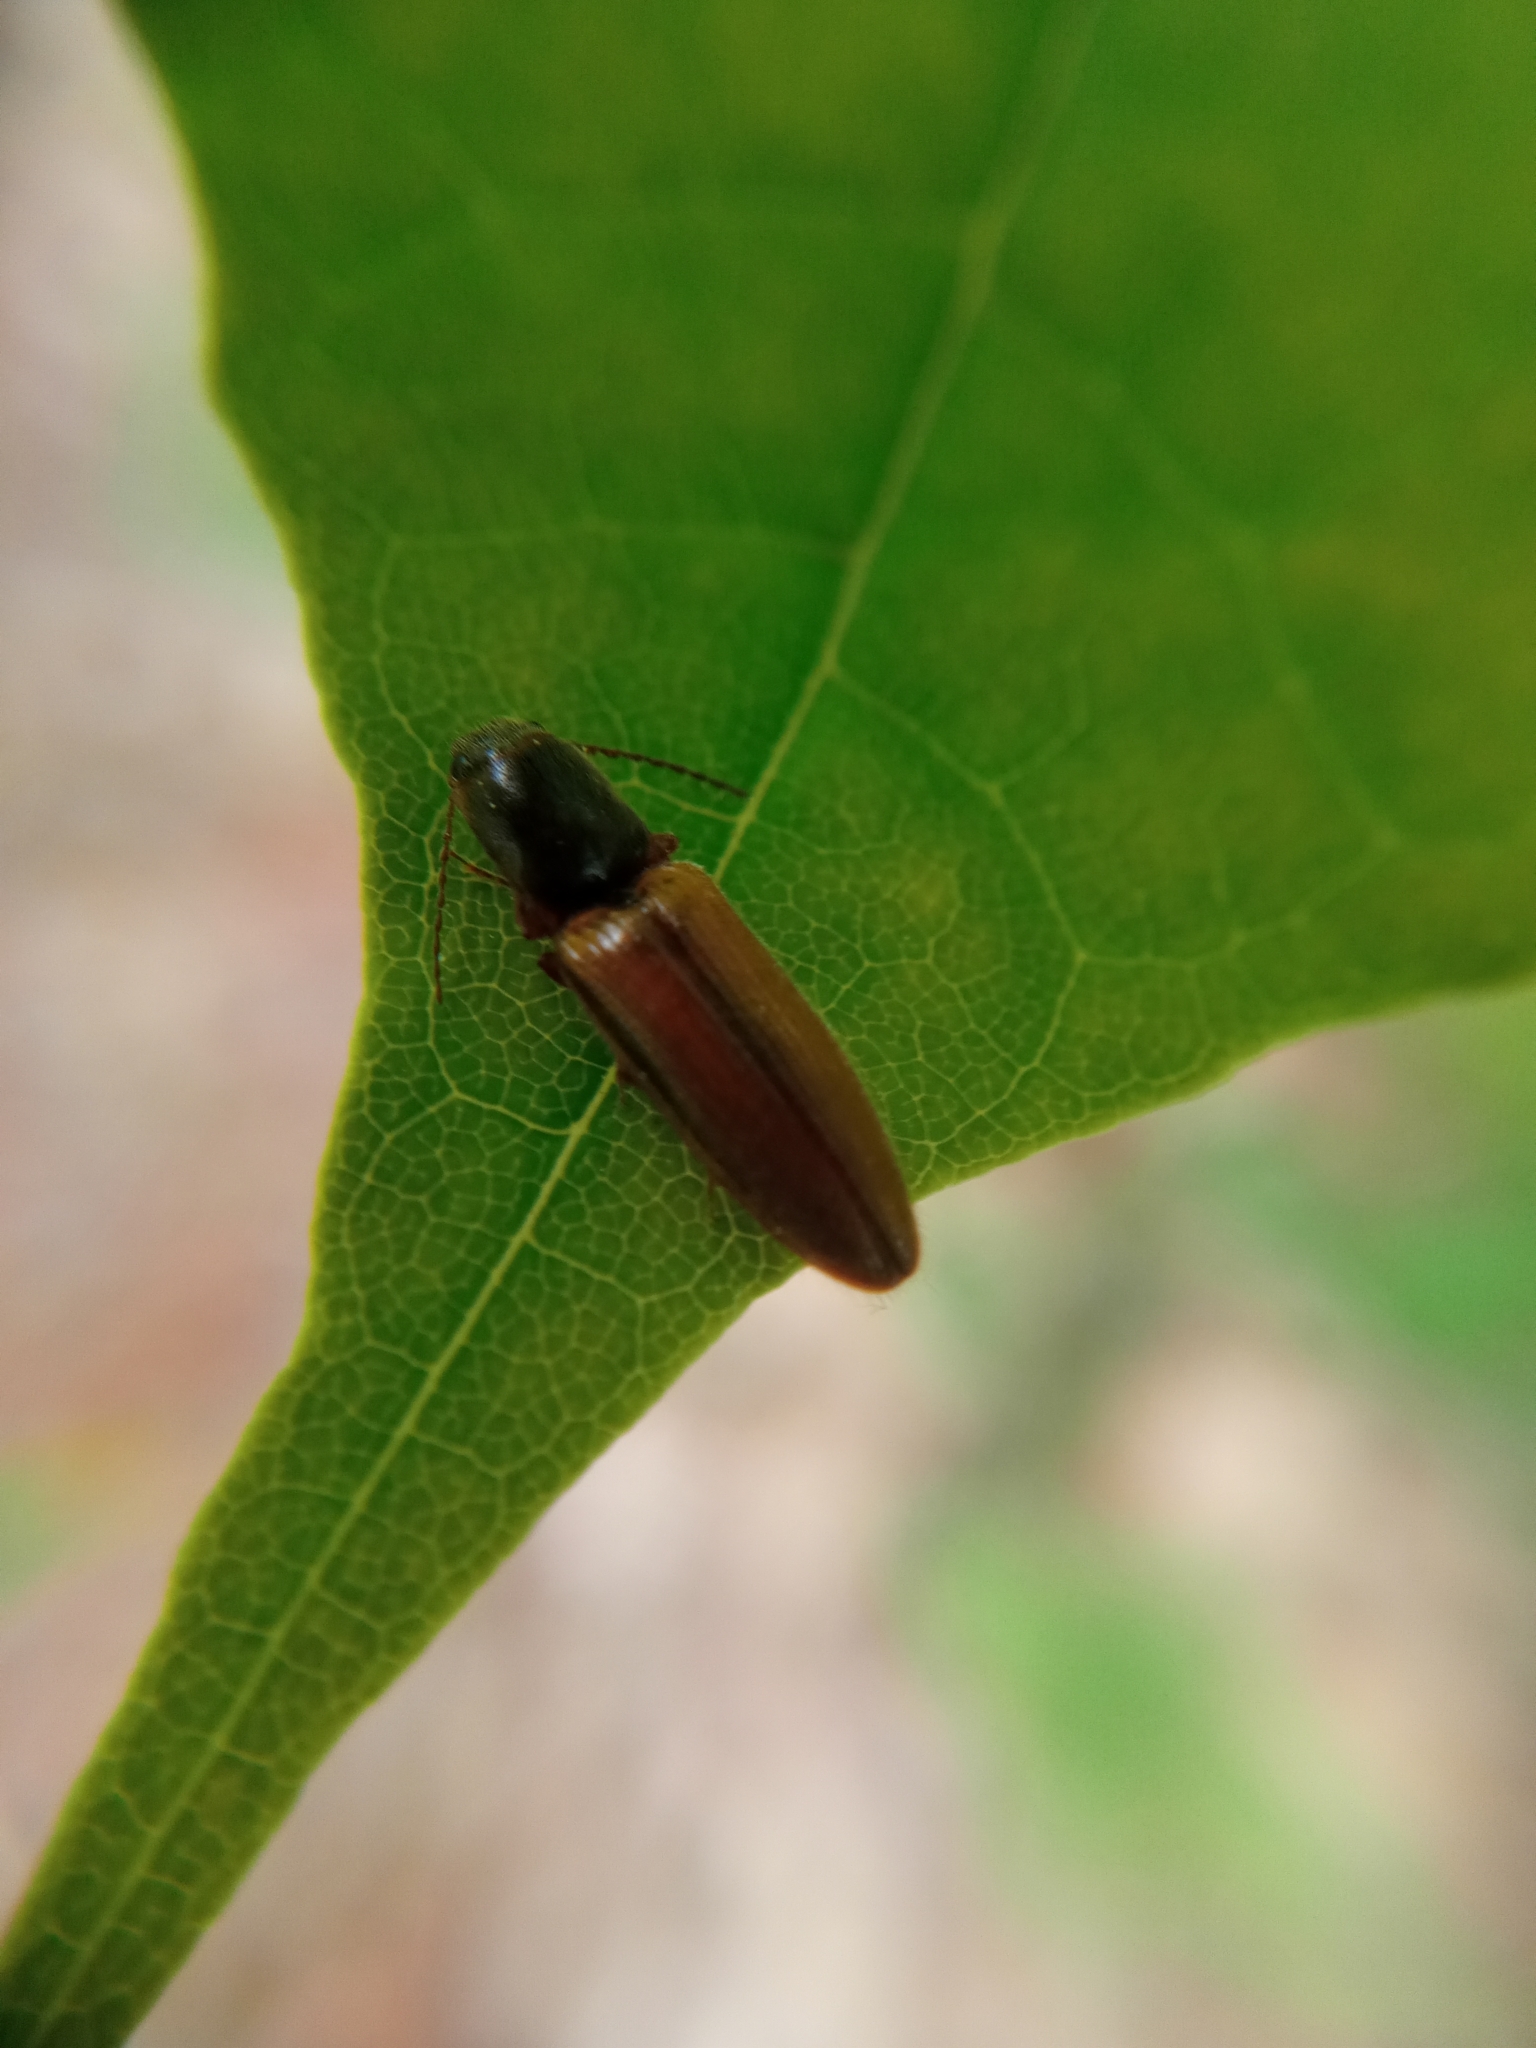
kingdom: Animalia
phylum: Arthropoda
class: Insecta
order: Coleoptera
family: Elateridae
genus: Athous
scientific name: Athous vittatus
